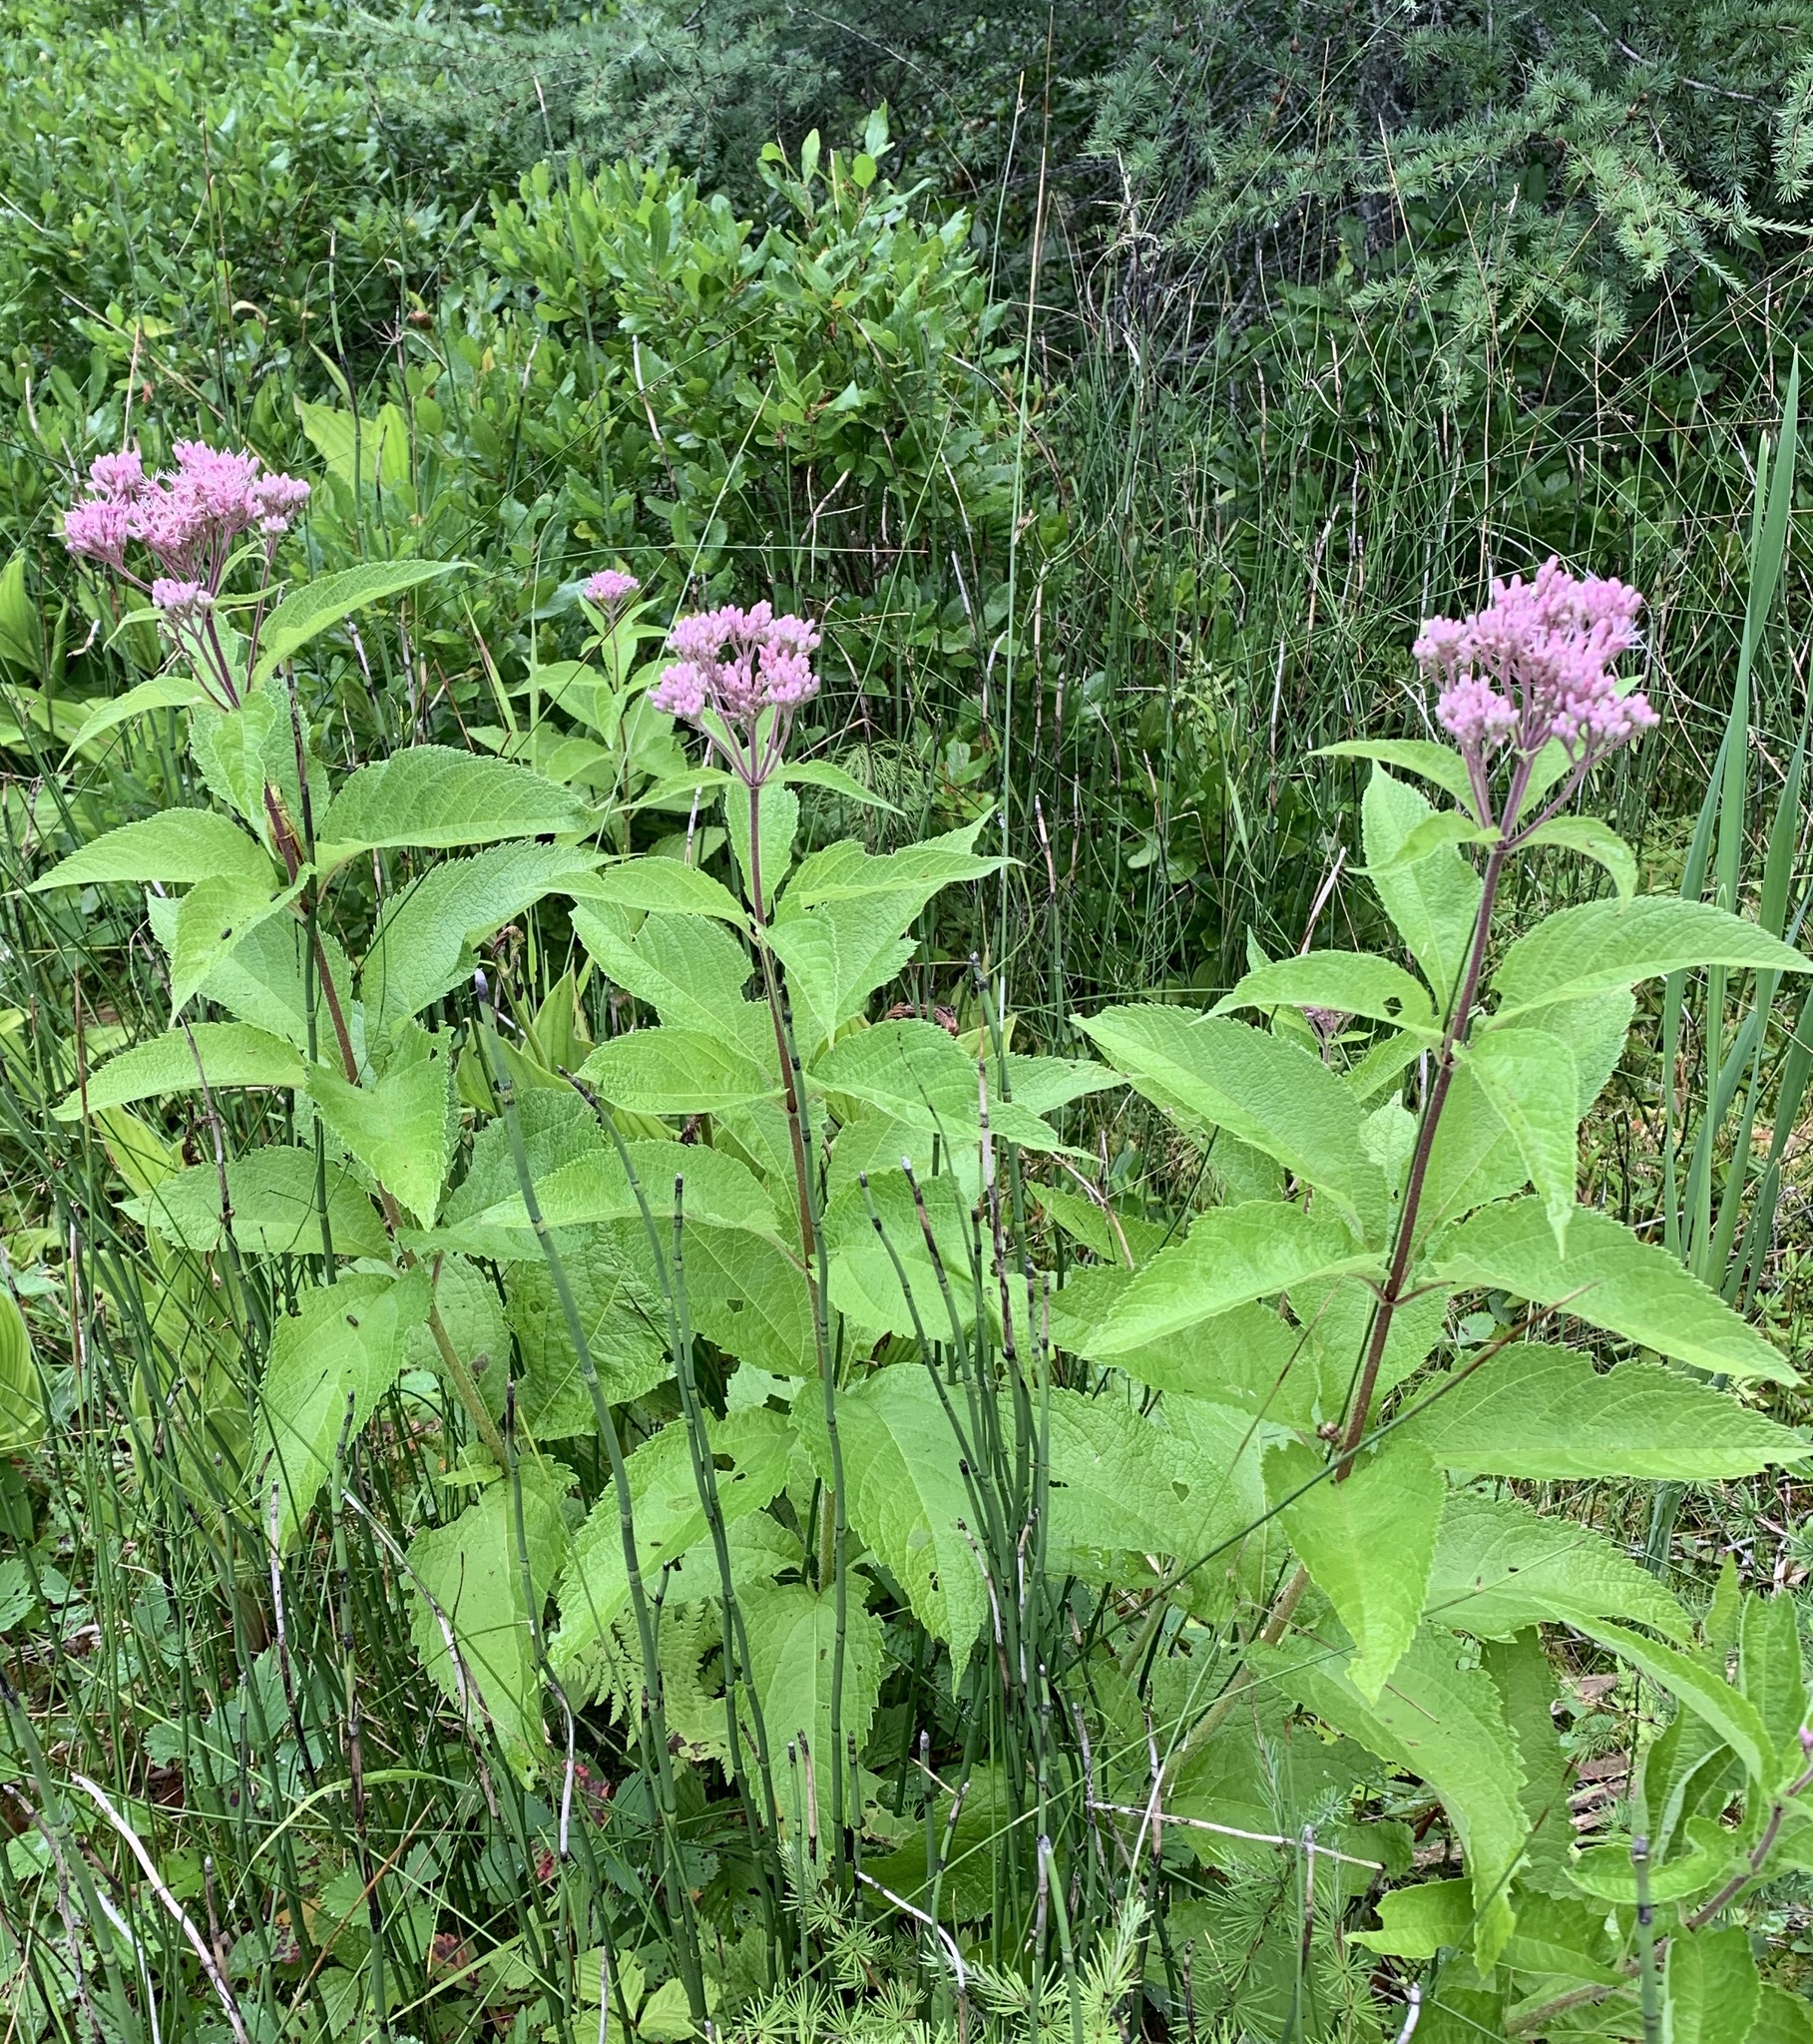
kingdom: Plantae
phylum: Tracheophyta
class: Magnoliopsida
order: Asterales
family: Asteraceae
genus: Eutrochium
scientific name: Eutrochium maculatum
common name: Spotted joe pye weed
